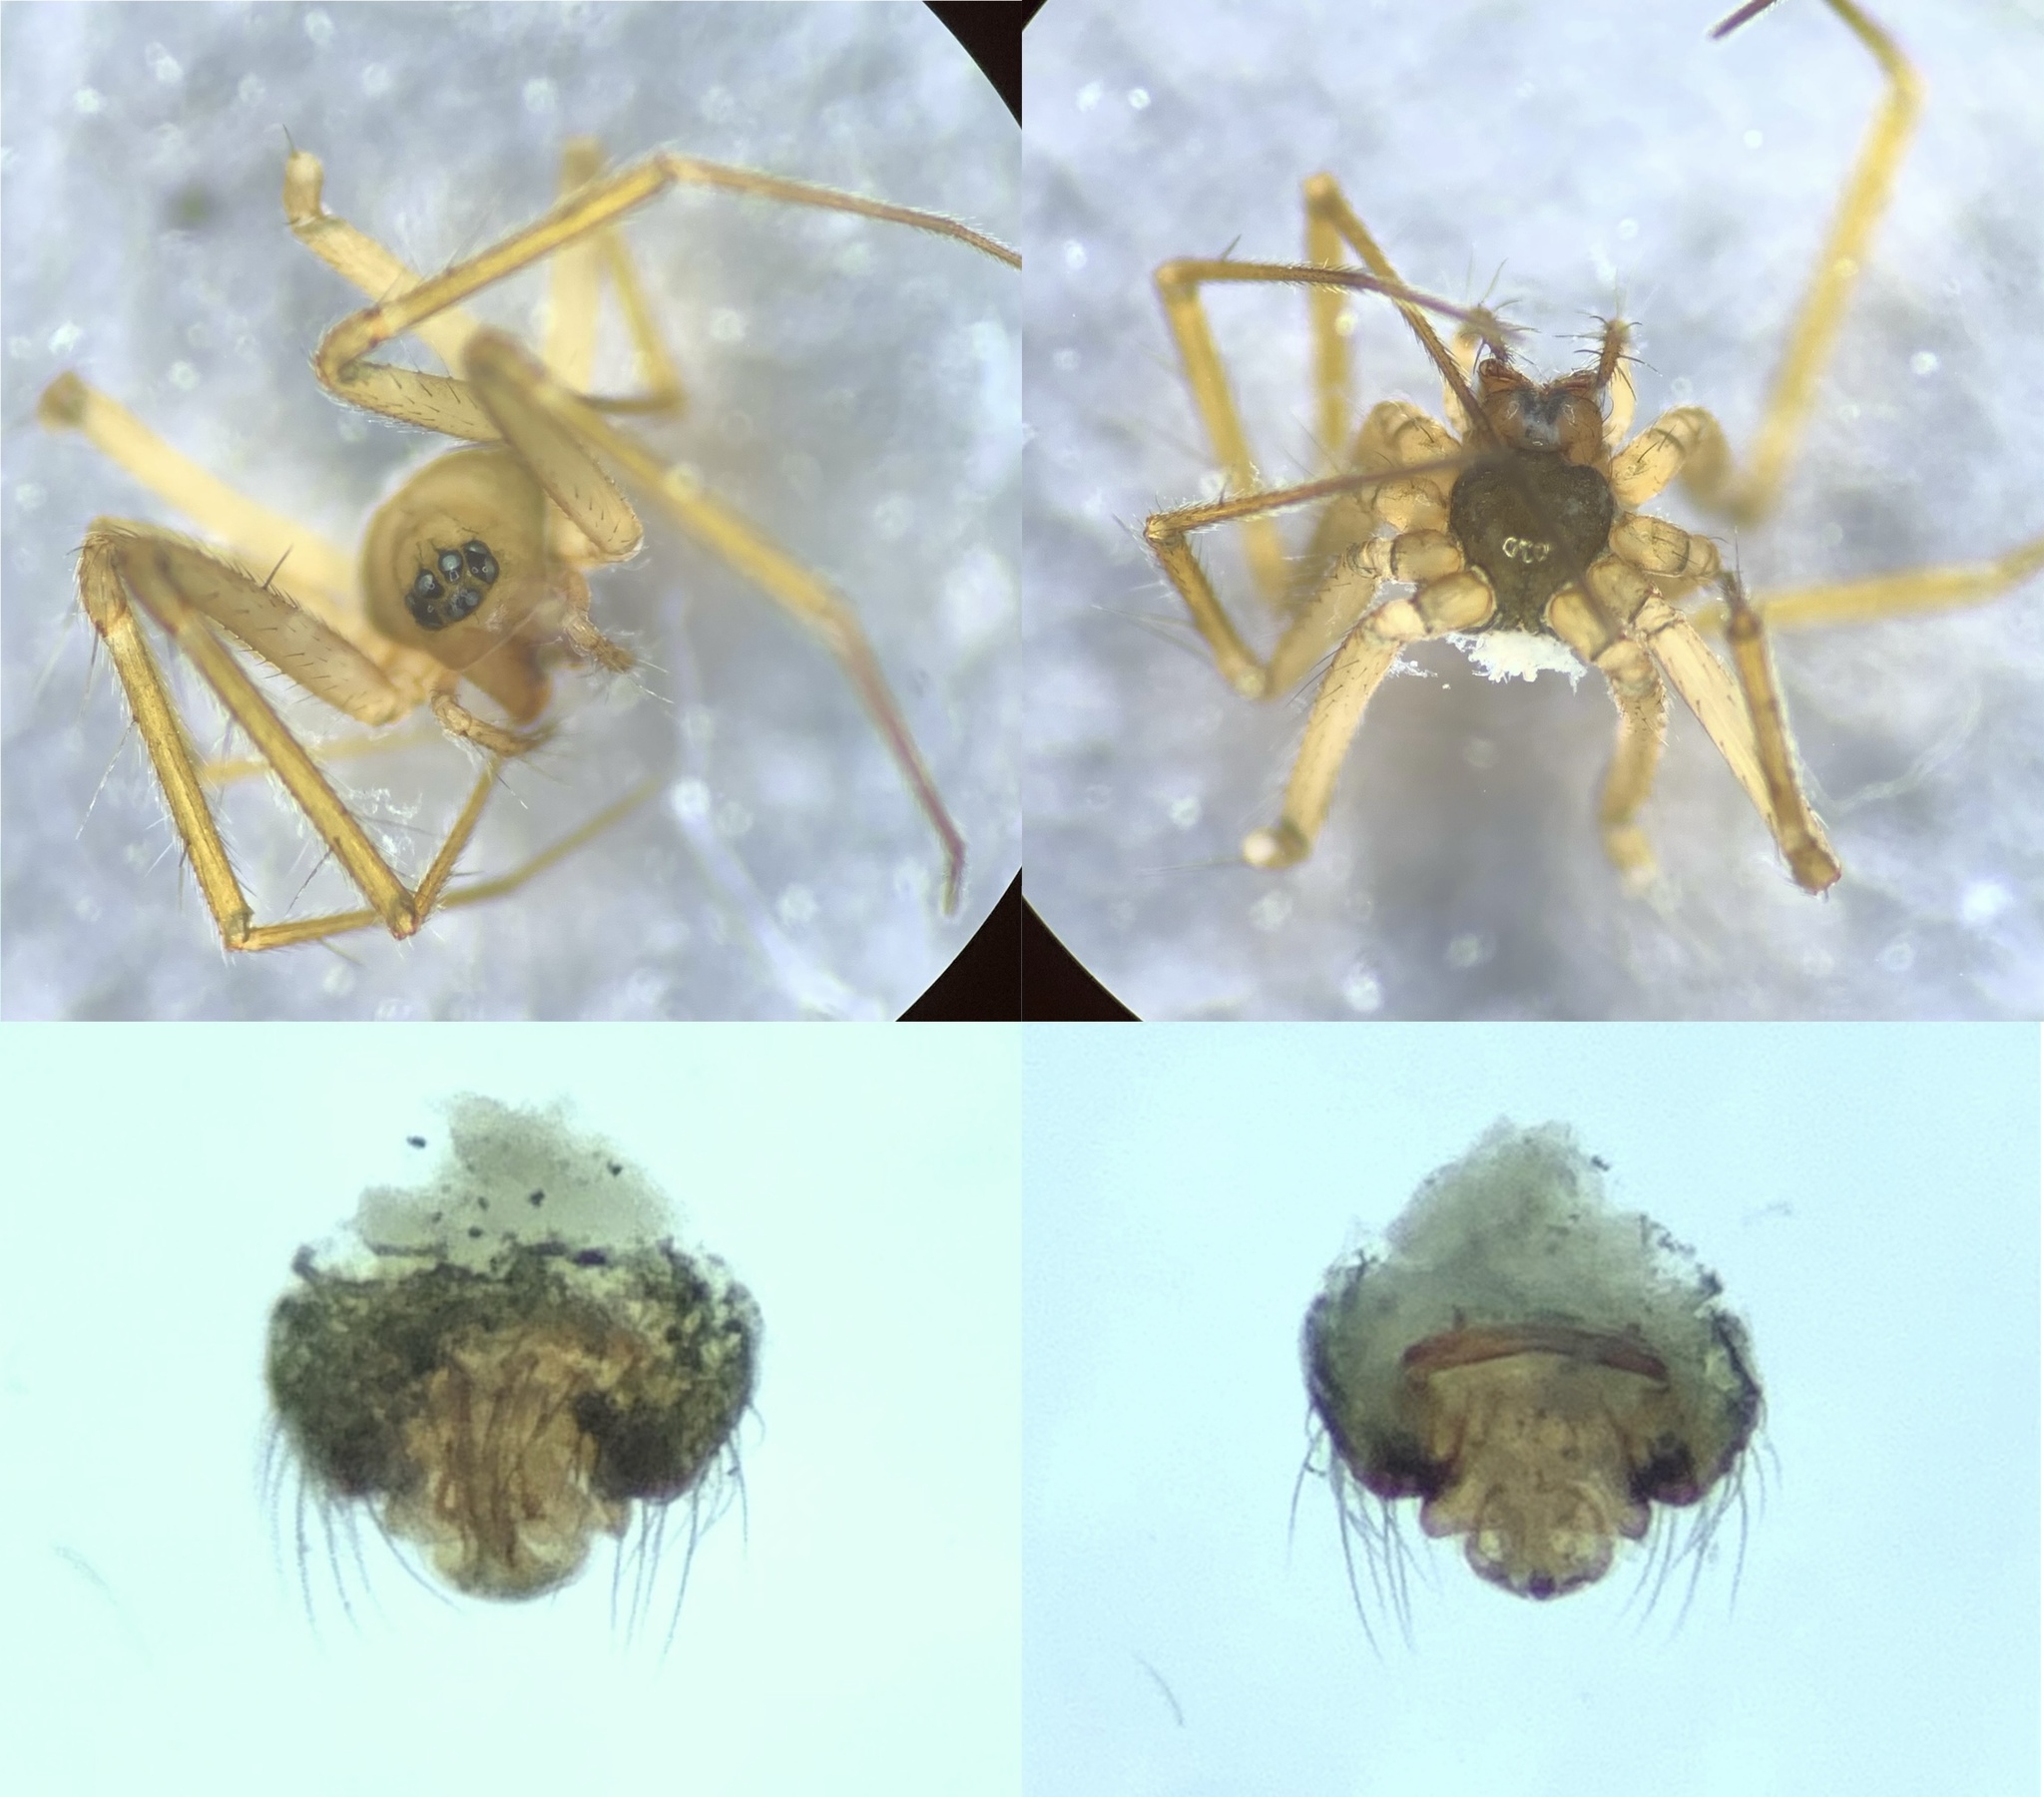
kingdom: Animalia
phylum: Arthropoda
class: Arachnida
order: Araneae
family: Linyphiidae
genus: Tenuiphantes
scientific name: Tenuiphantes tenuis
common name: Dwarf weaver
